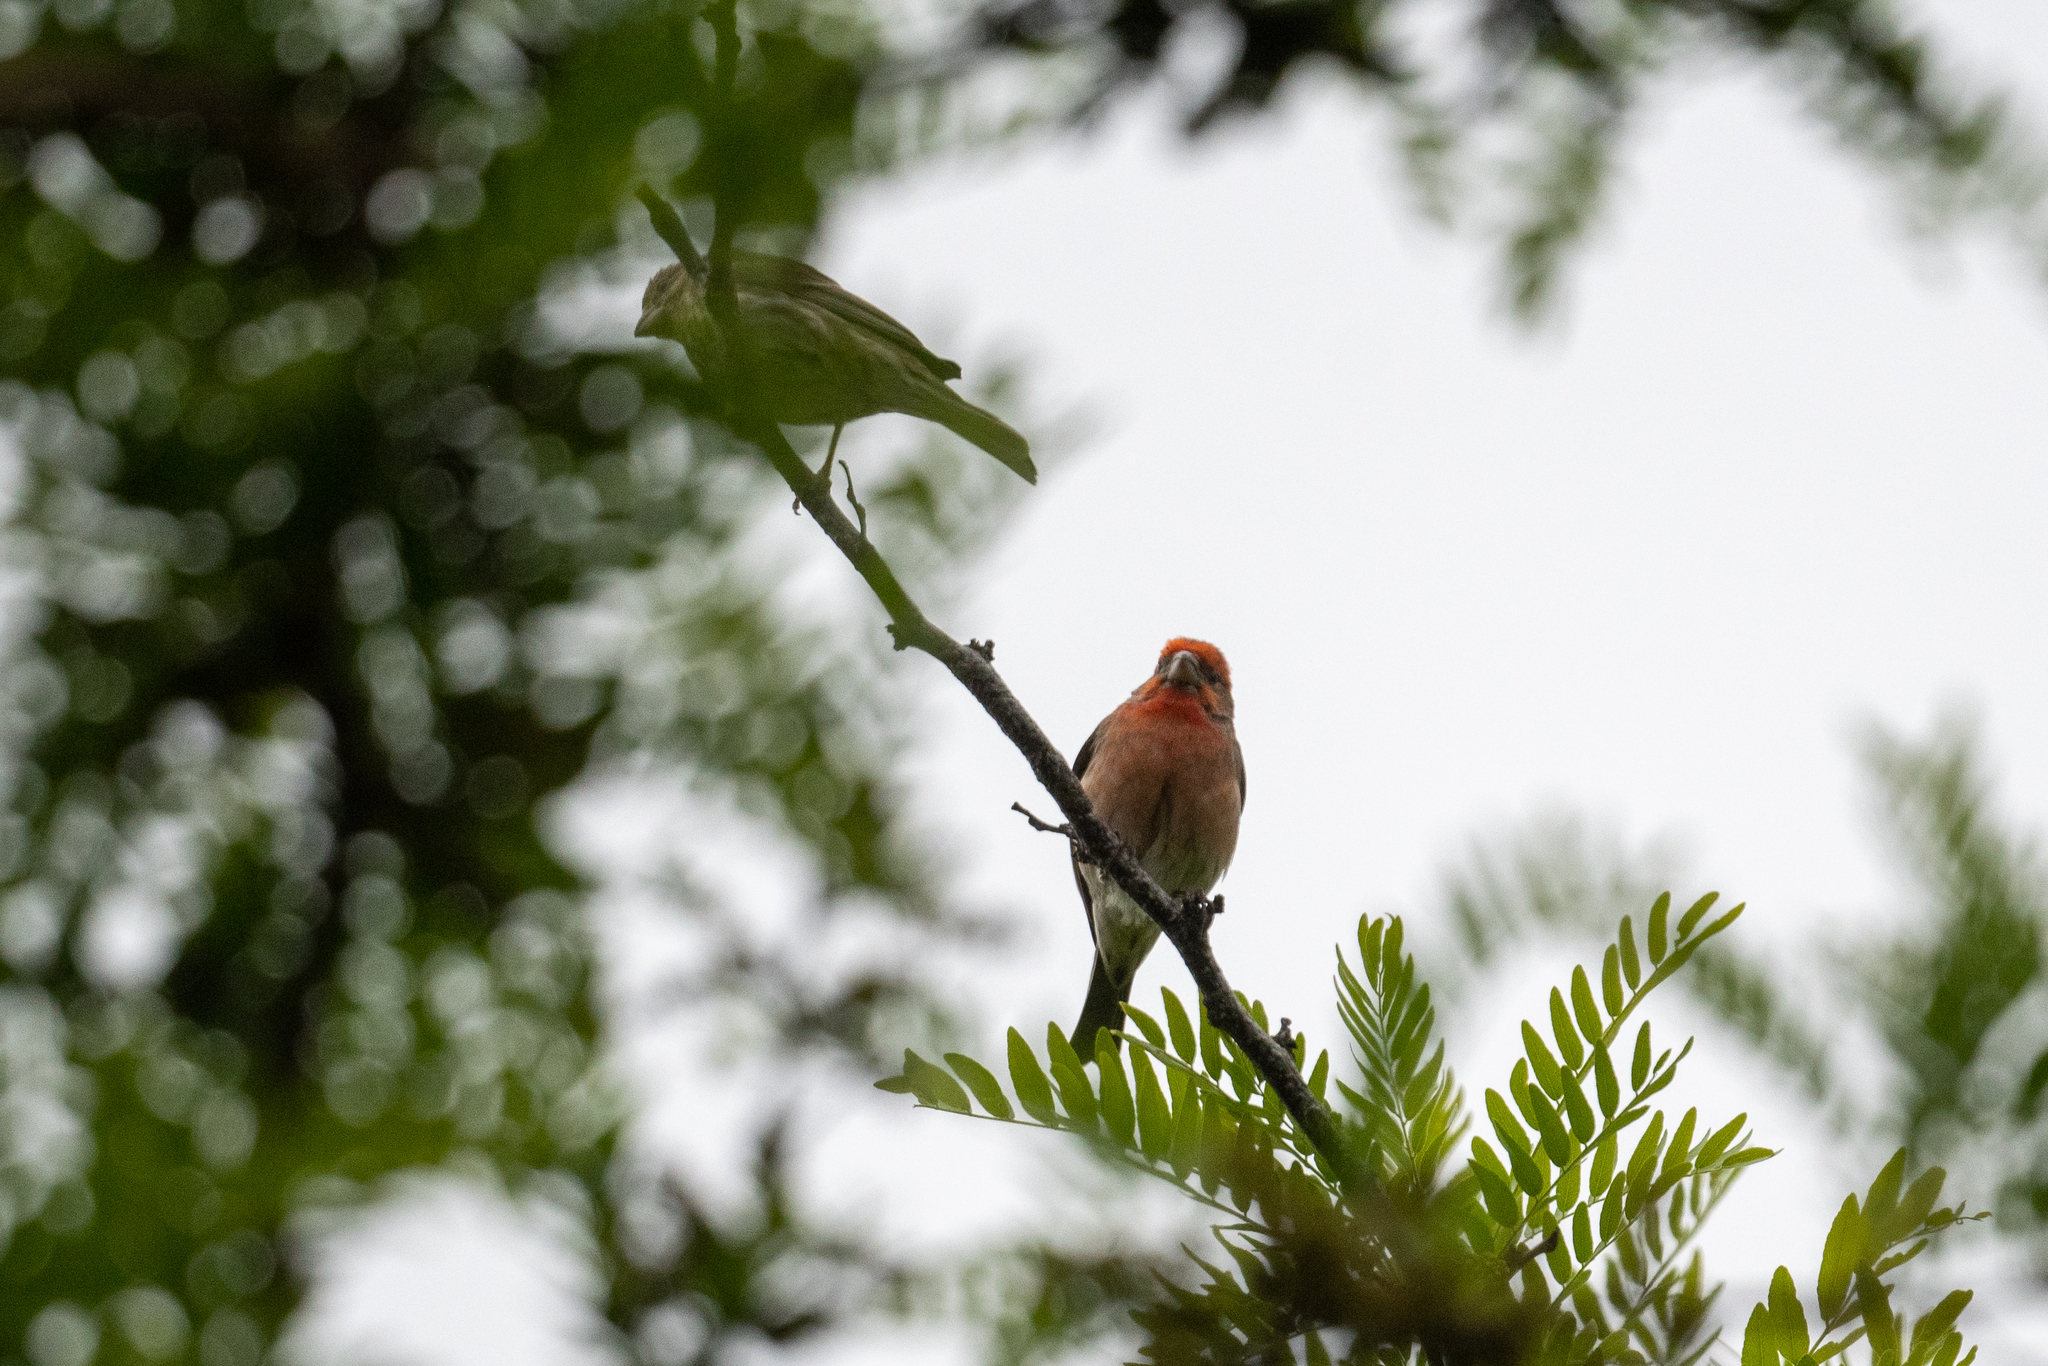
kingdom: Animalia
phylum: Chordata
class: Aves
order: Passeriformes
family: Fringillidae
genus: Haemorhous
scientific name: Haemorhous mexicanus
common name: House finch
